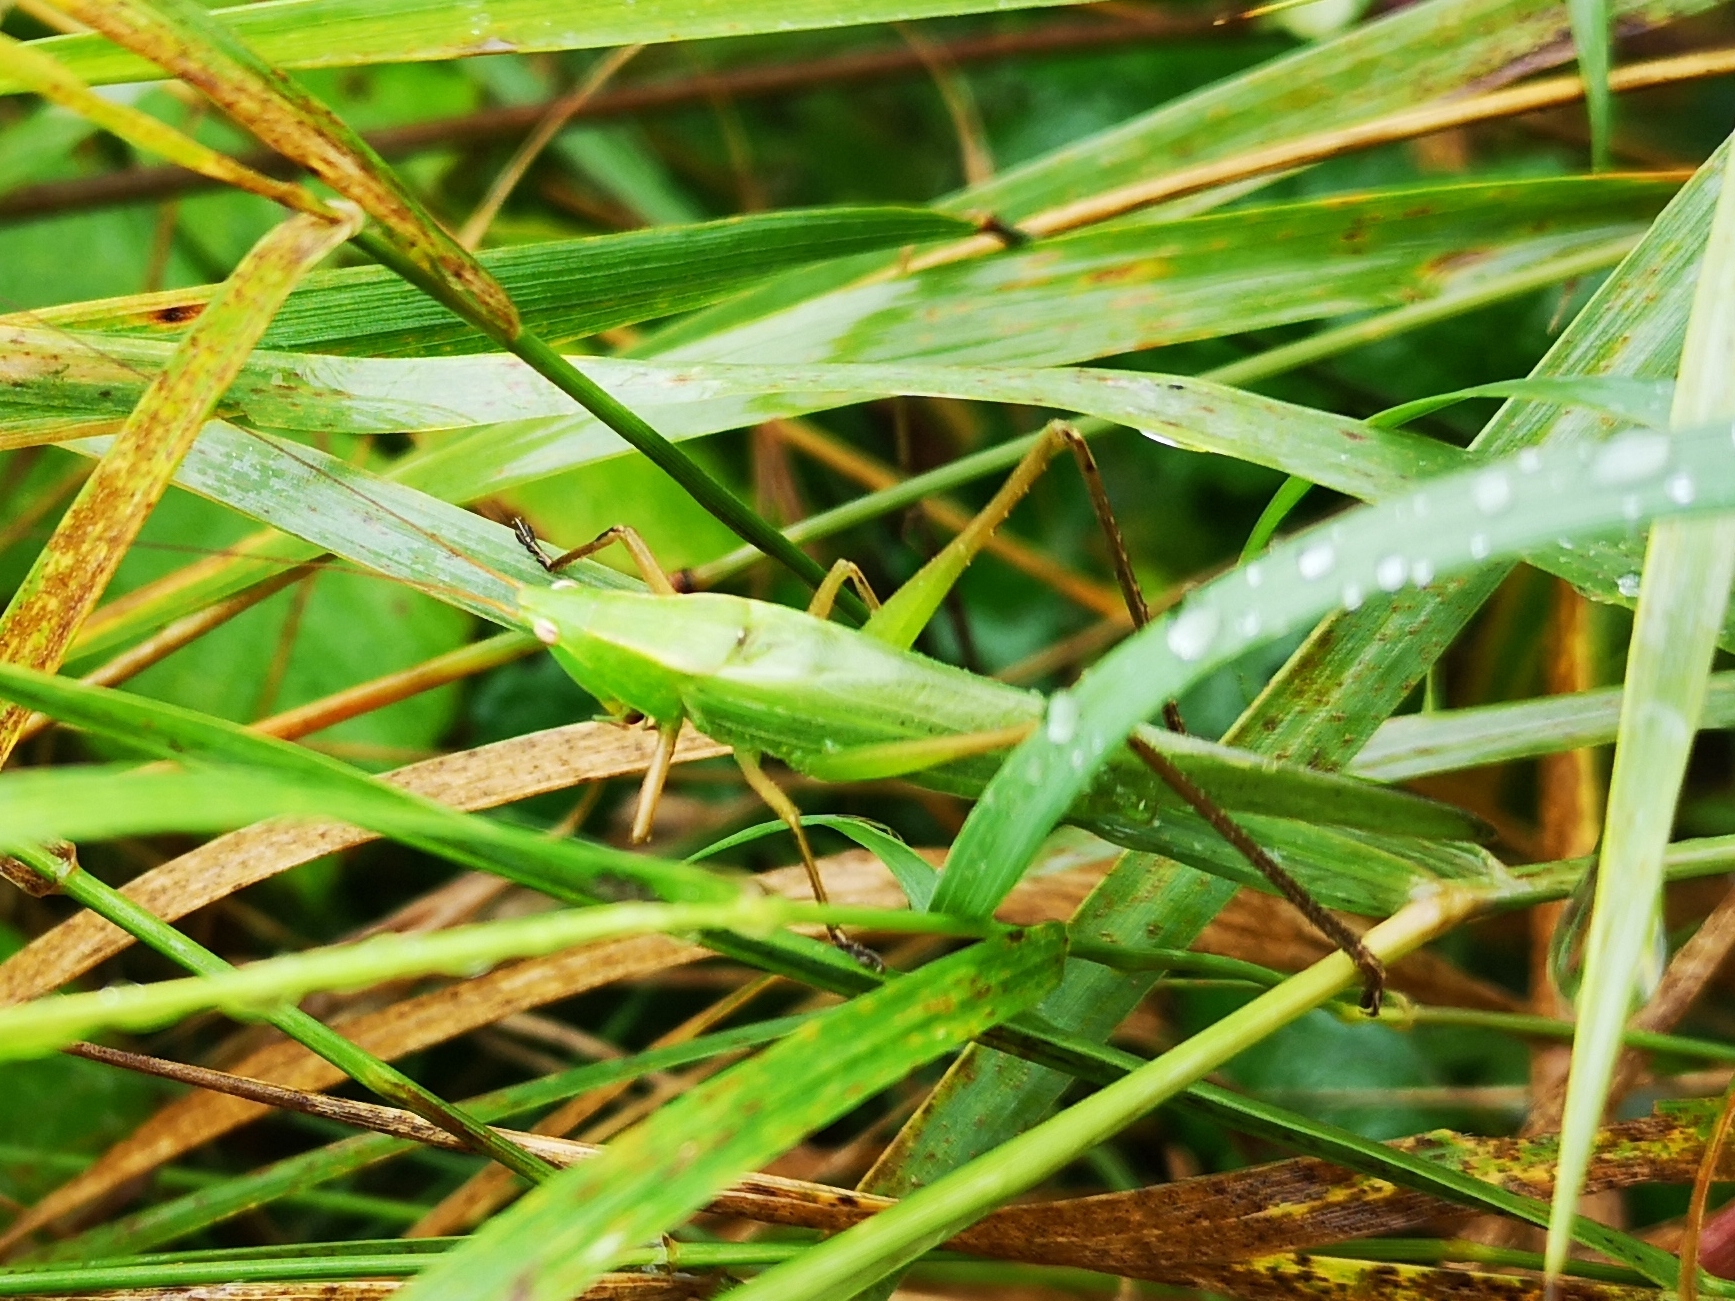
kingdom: Animalia
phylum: Arthropoda
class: Insecta
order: Orthoptera
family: Tettigoniidae
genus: Ruspolia
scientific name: Ruspolia nitidula
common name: Large conehead
